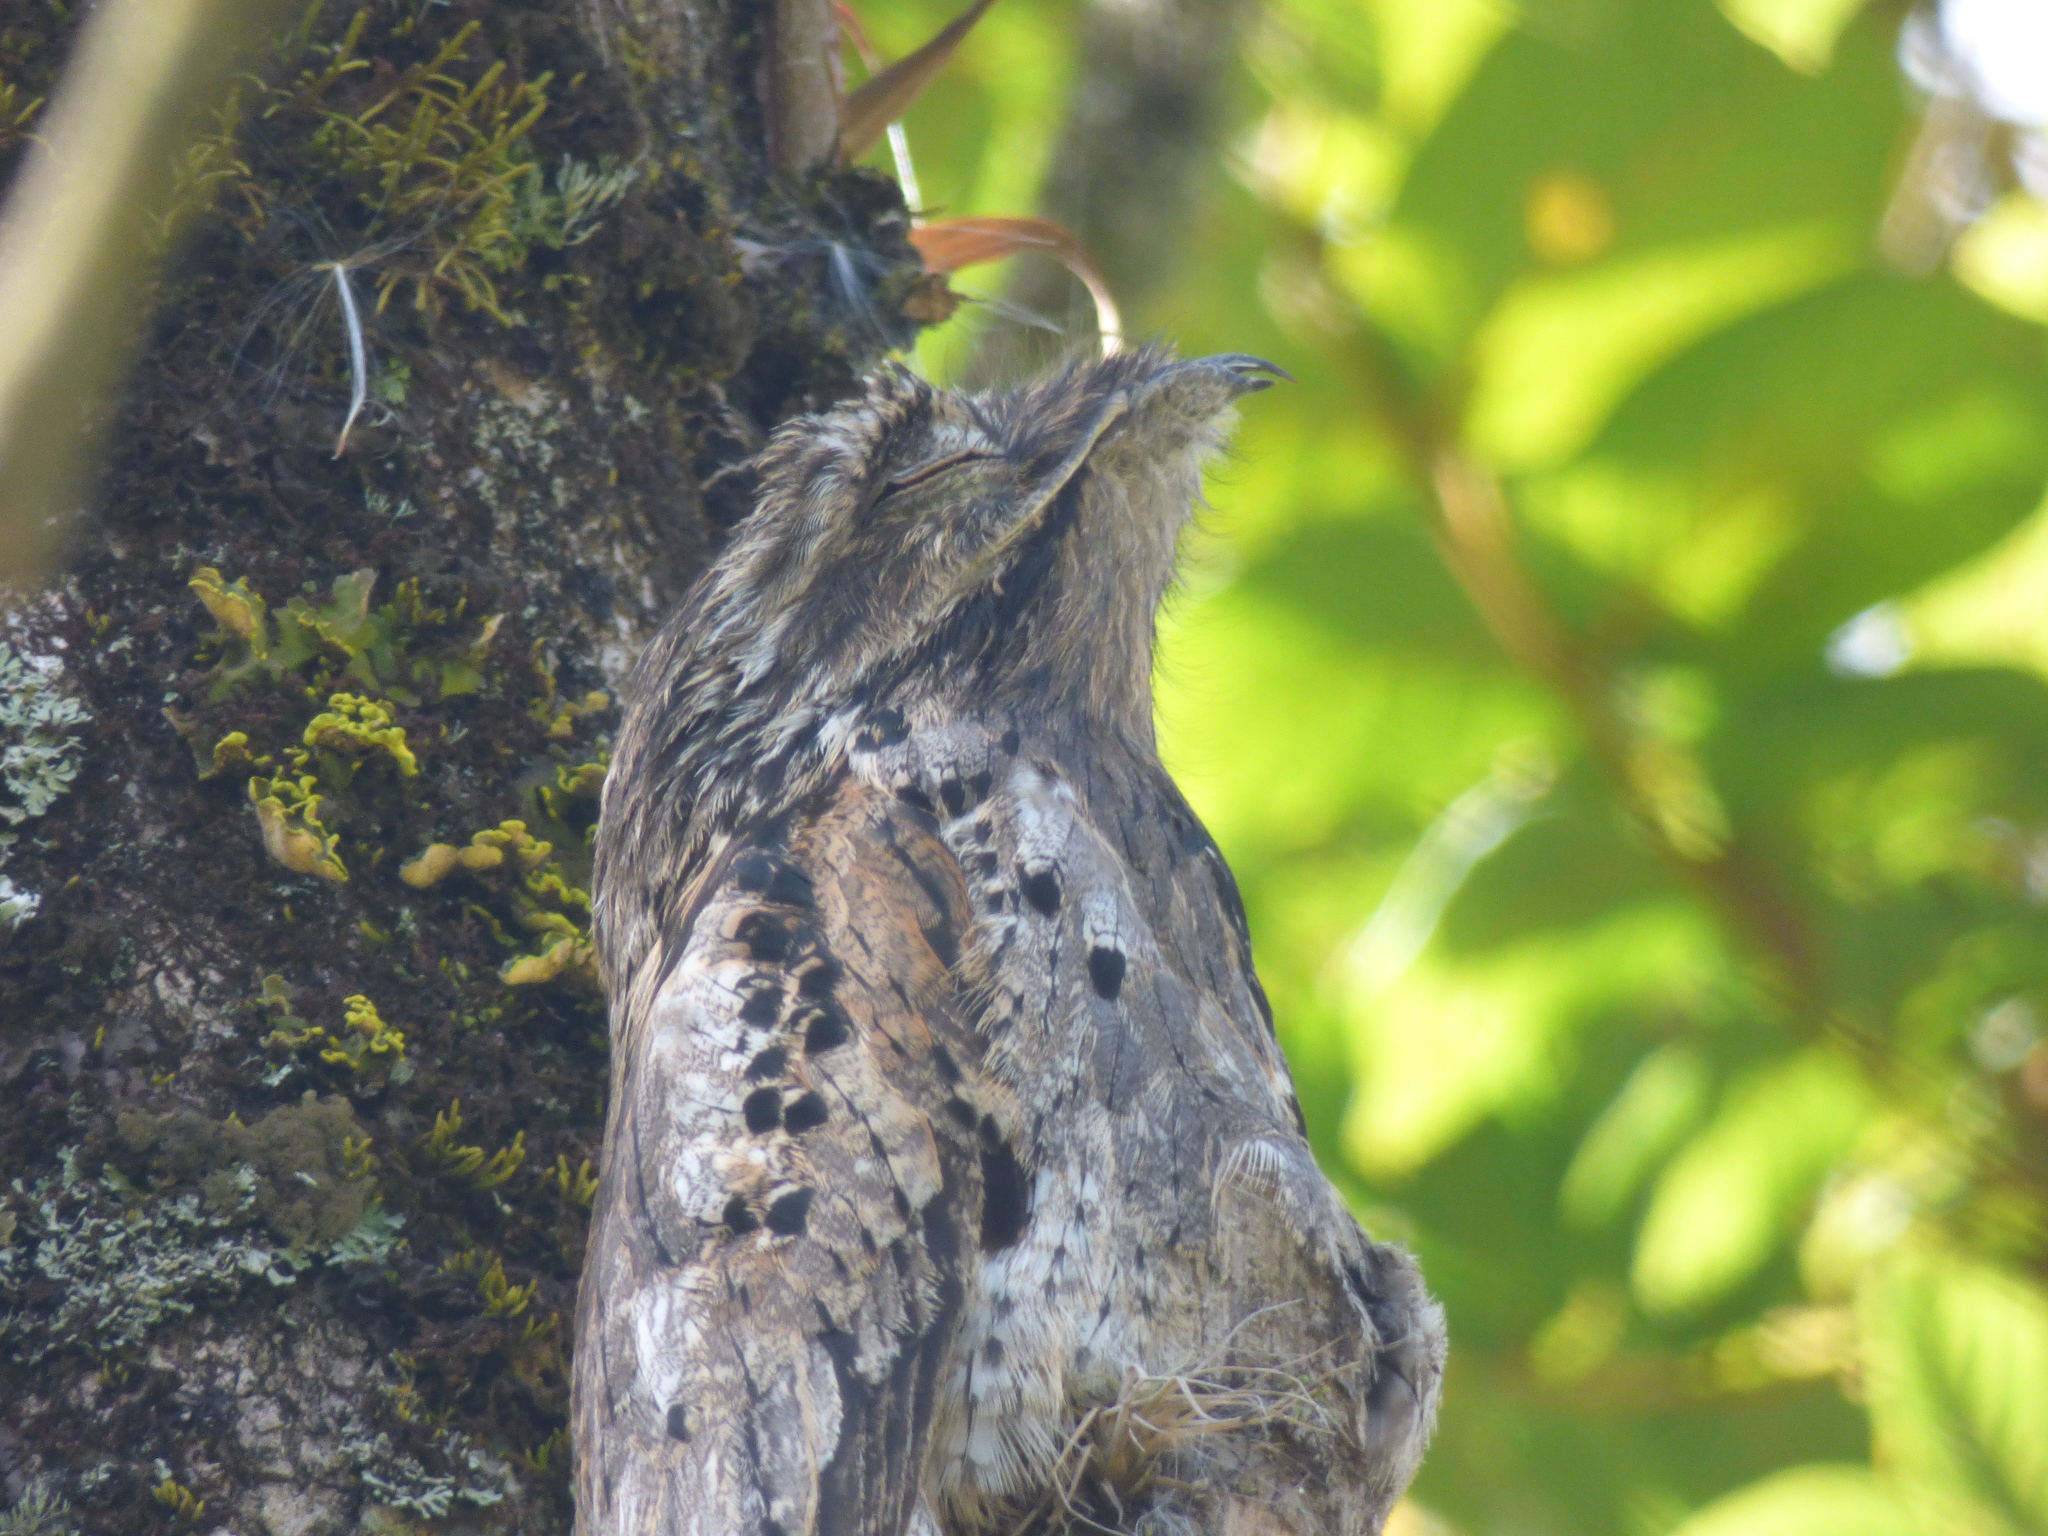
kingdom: Animalia
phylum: Chordata
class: Aves
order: Nyctibiiformes
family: Nyctibiidae
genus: Nyctibius
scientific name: Nyctibius griseus
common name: Common potoo
